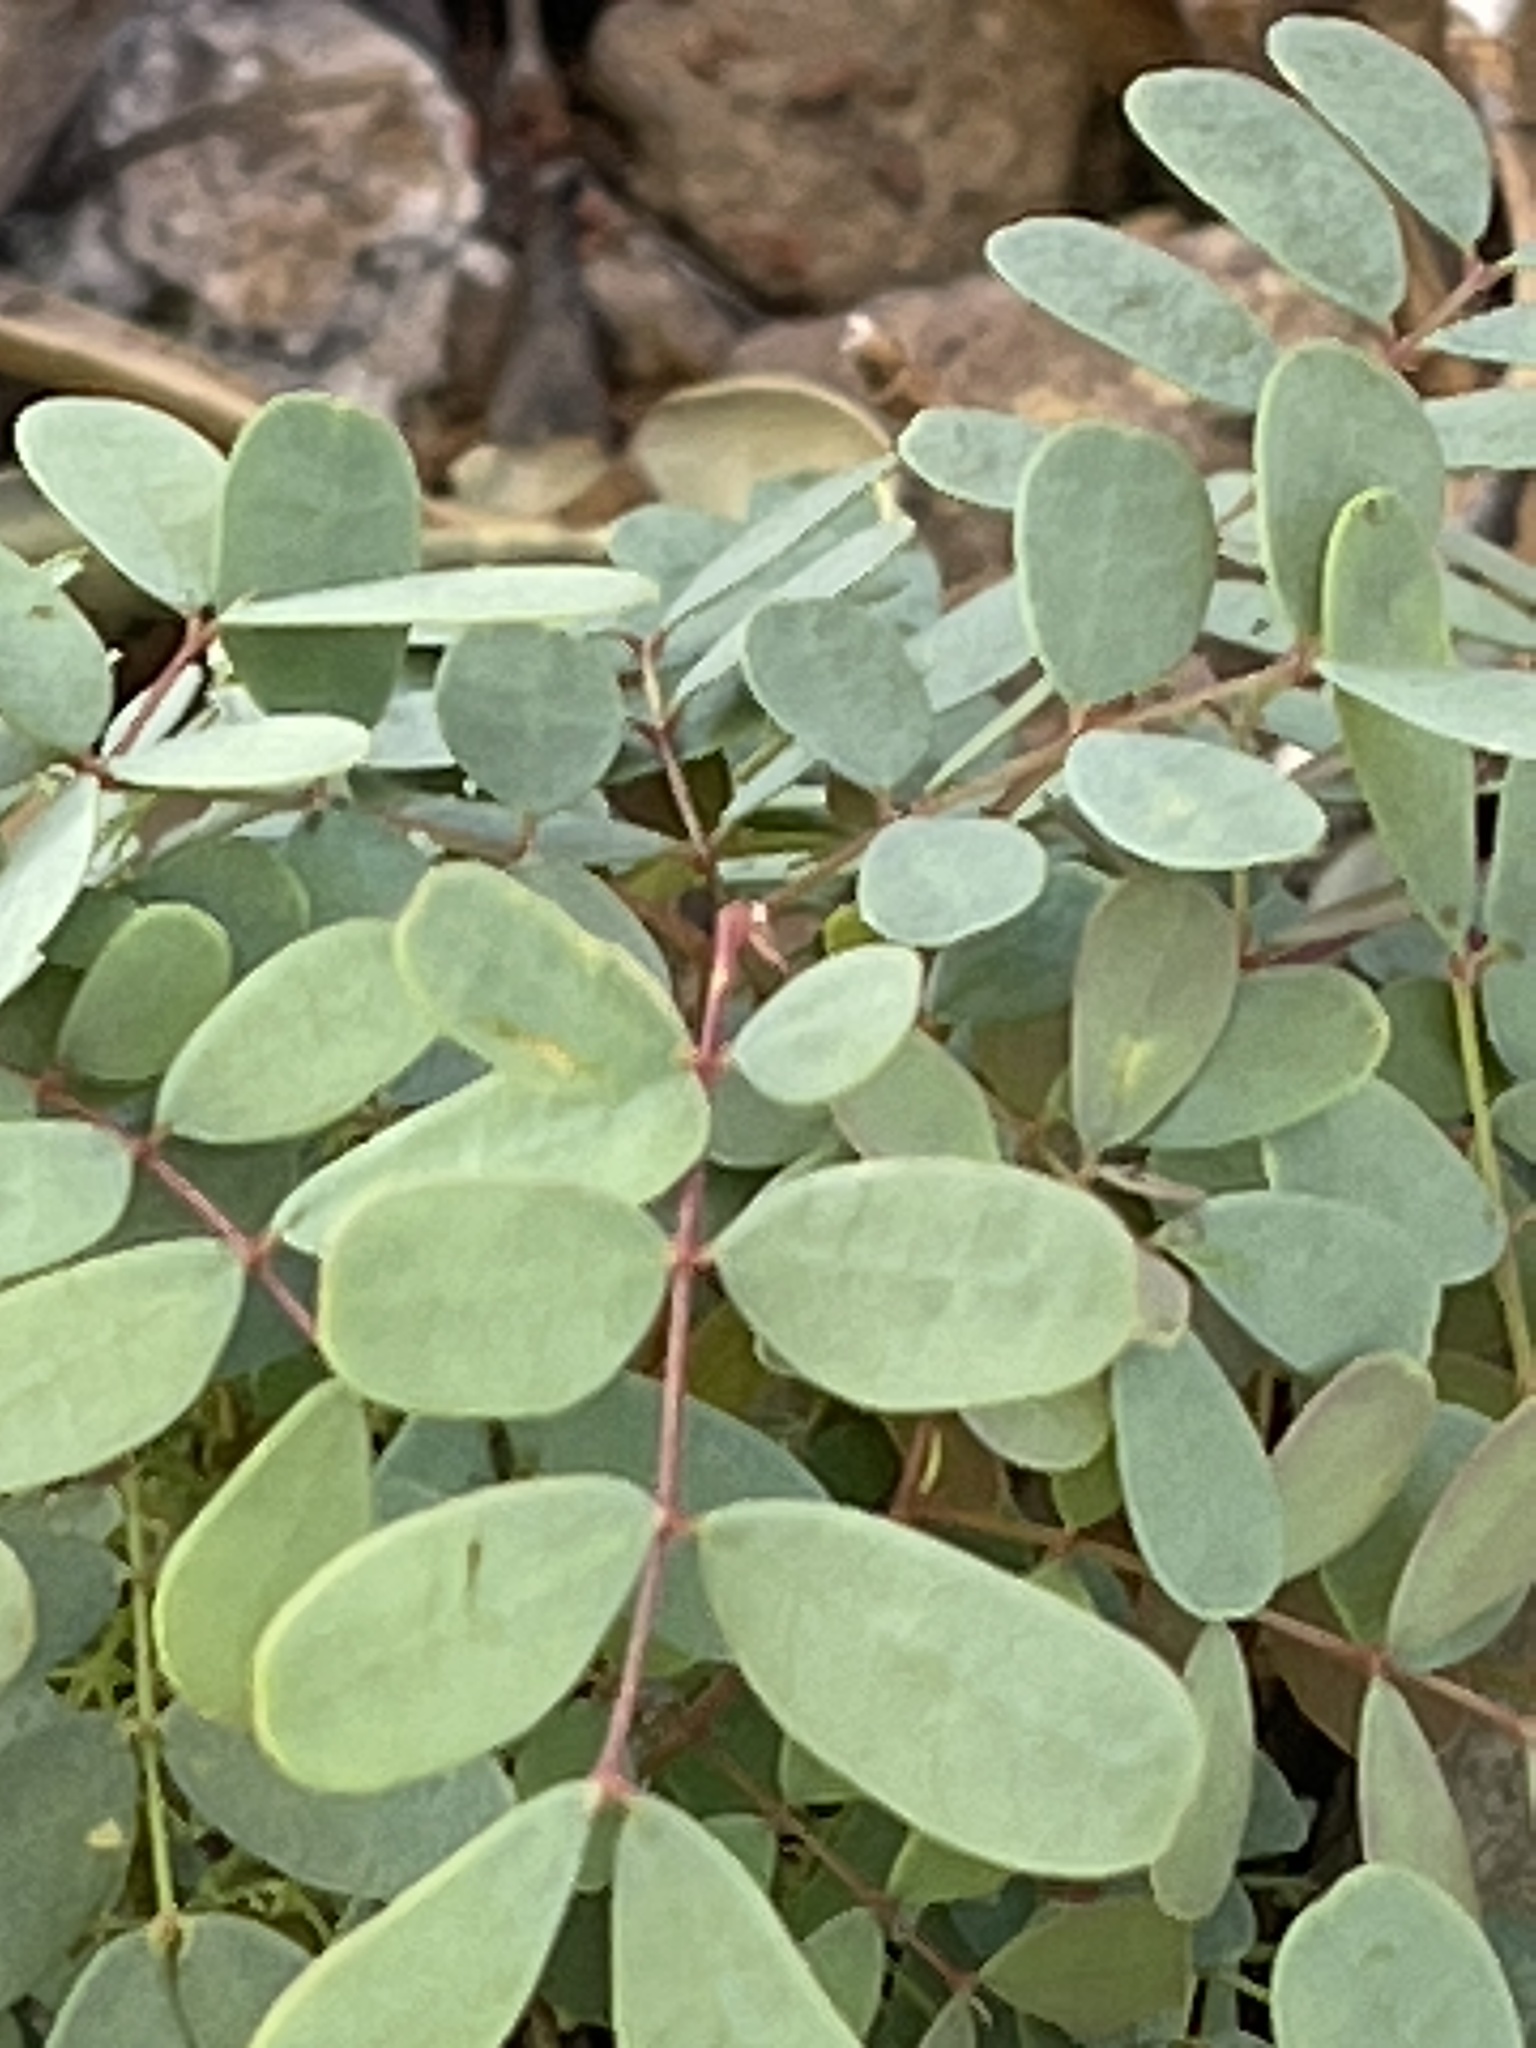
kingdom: Plantae
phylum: Tracheophyta
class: Magnoliopsida
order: Fabales
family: Fabaceae
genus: Erythrostemon
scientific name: Erythrostemon gilliesii
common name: Bird-of-paradise shrub
